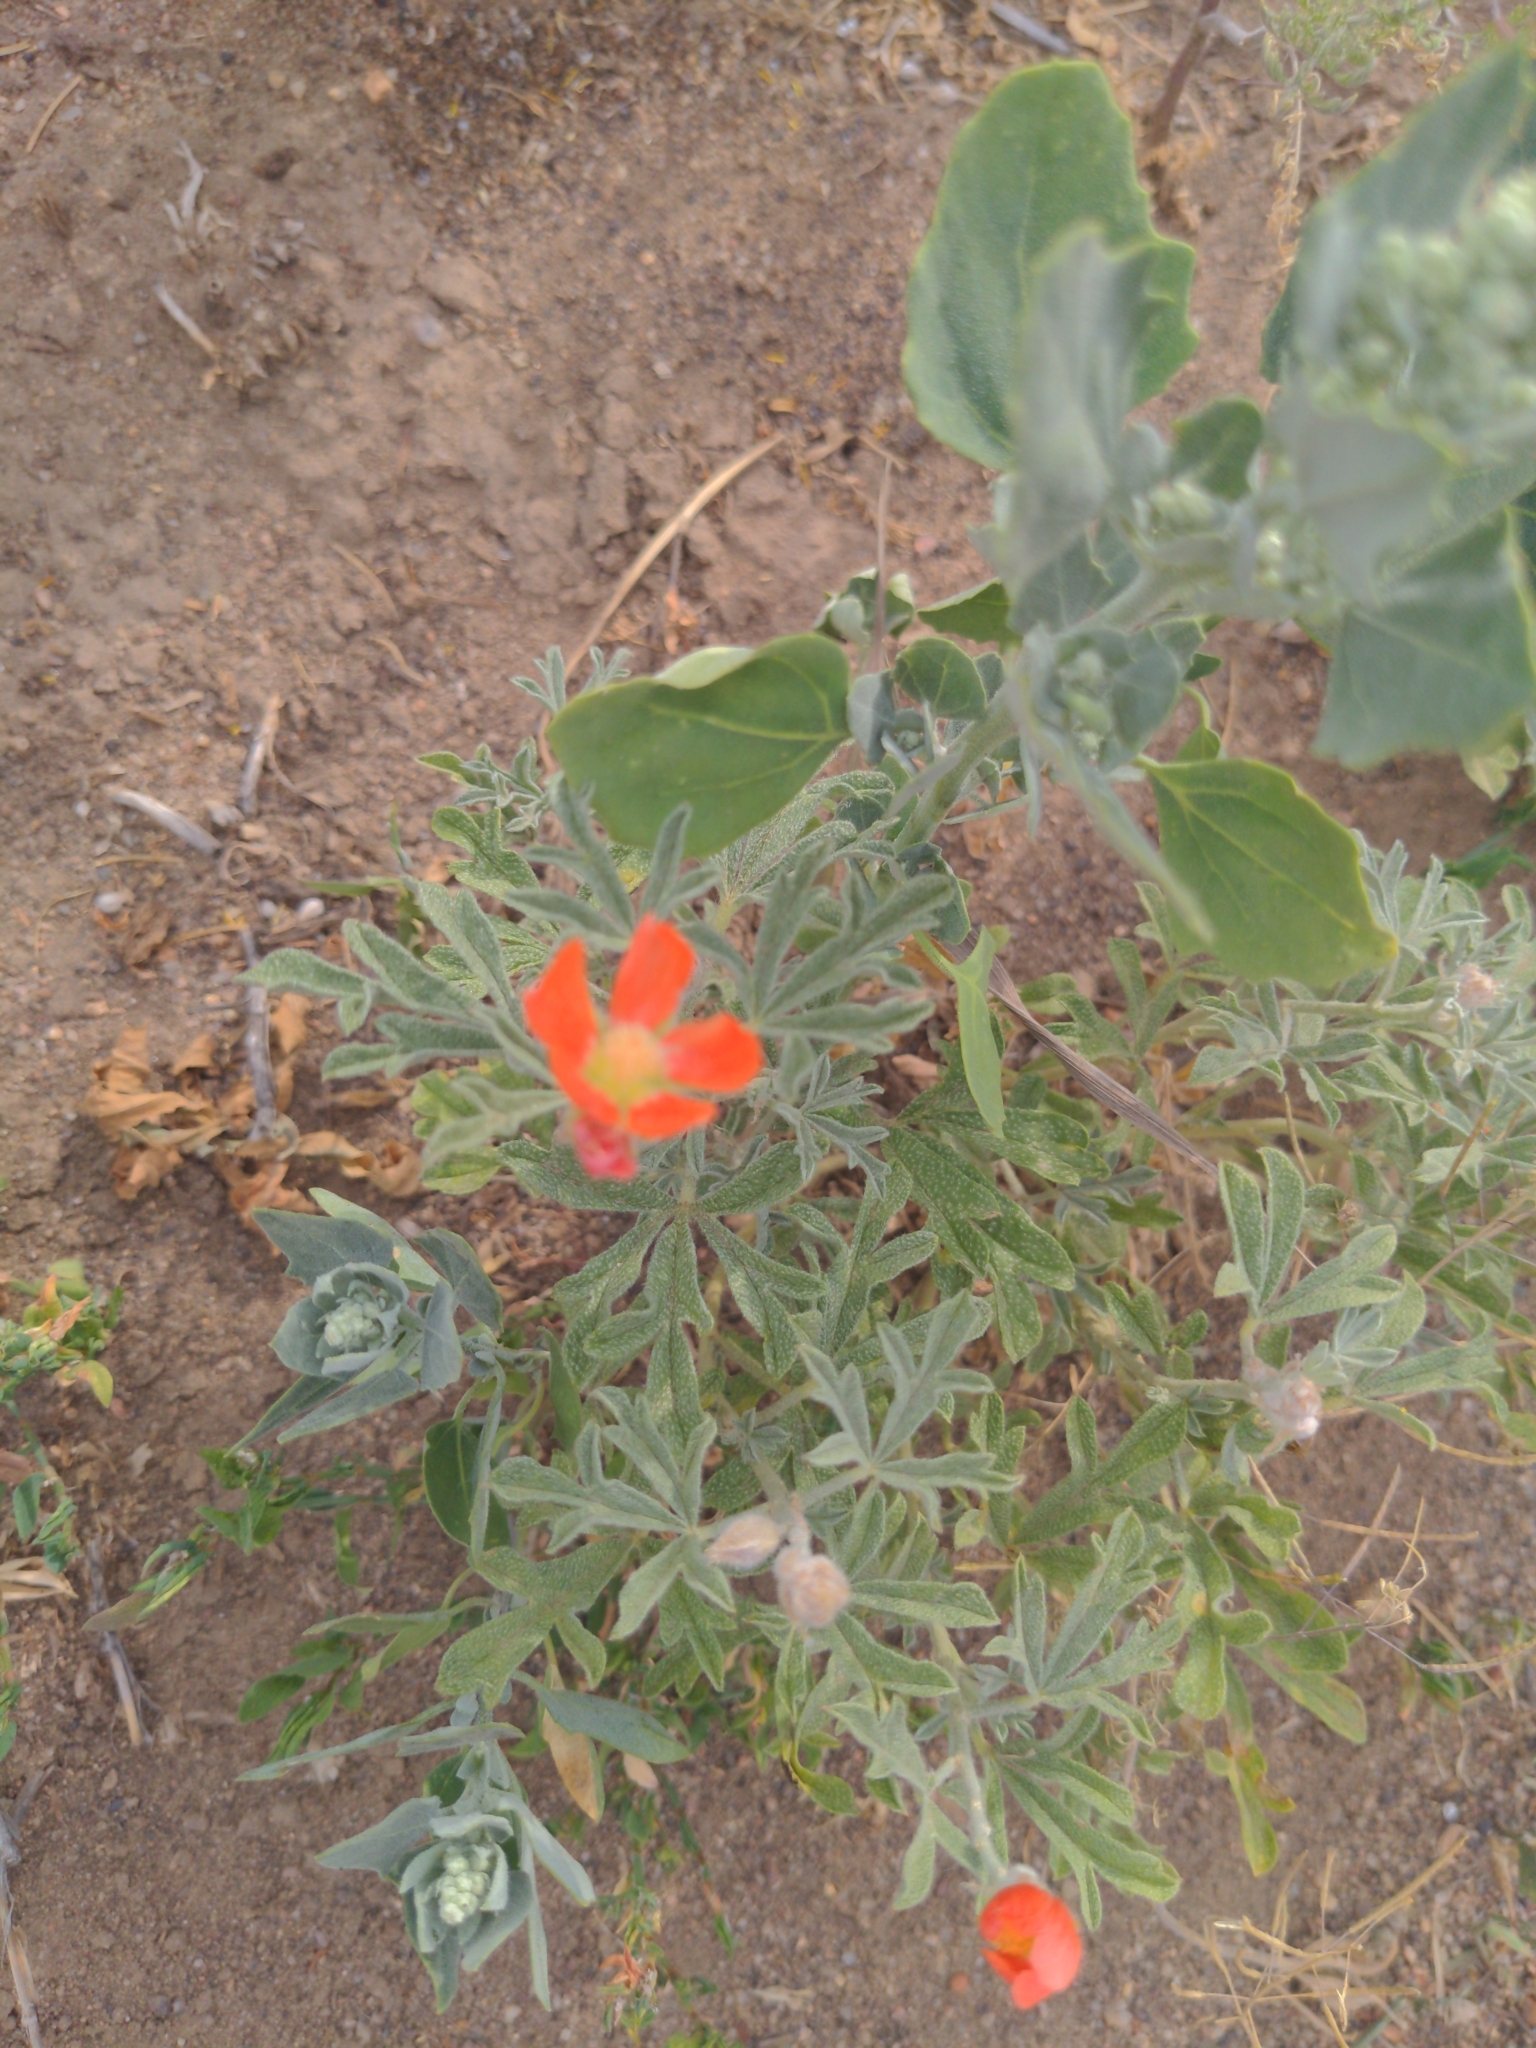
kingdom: Plantae
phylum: Tracheophyta
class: Magnoliopsida
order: Malvales
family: Malvaceae
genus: Sphaeralcea
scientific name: Sphaeralcea coccinea
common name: Moss-rose
